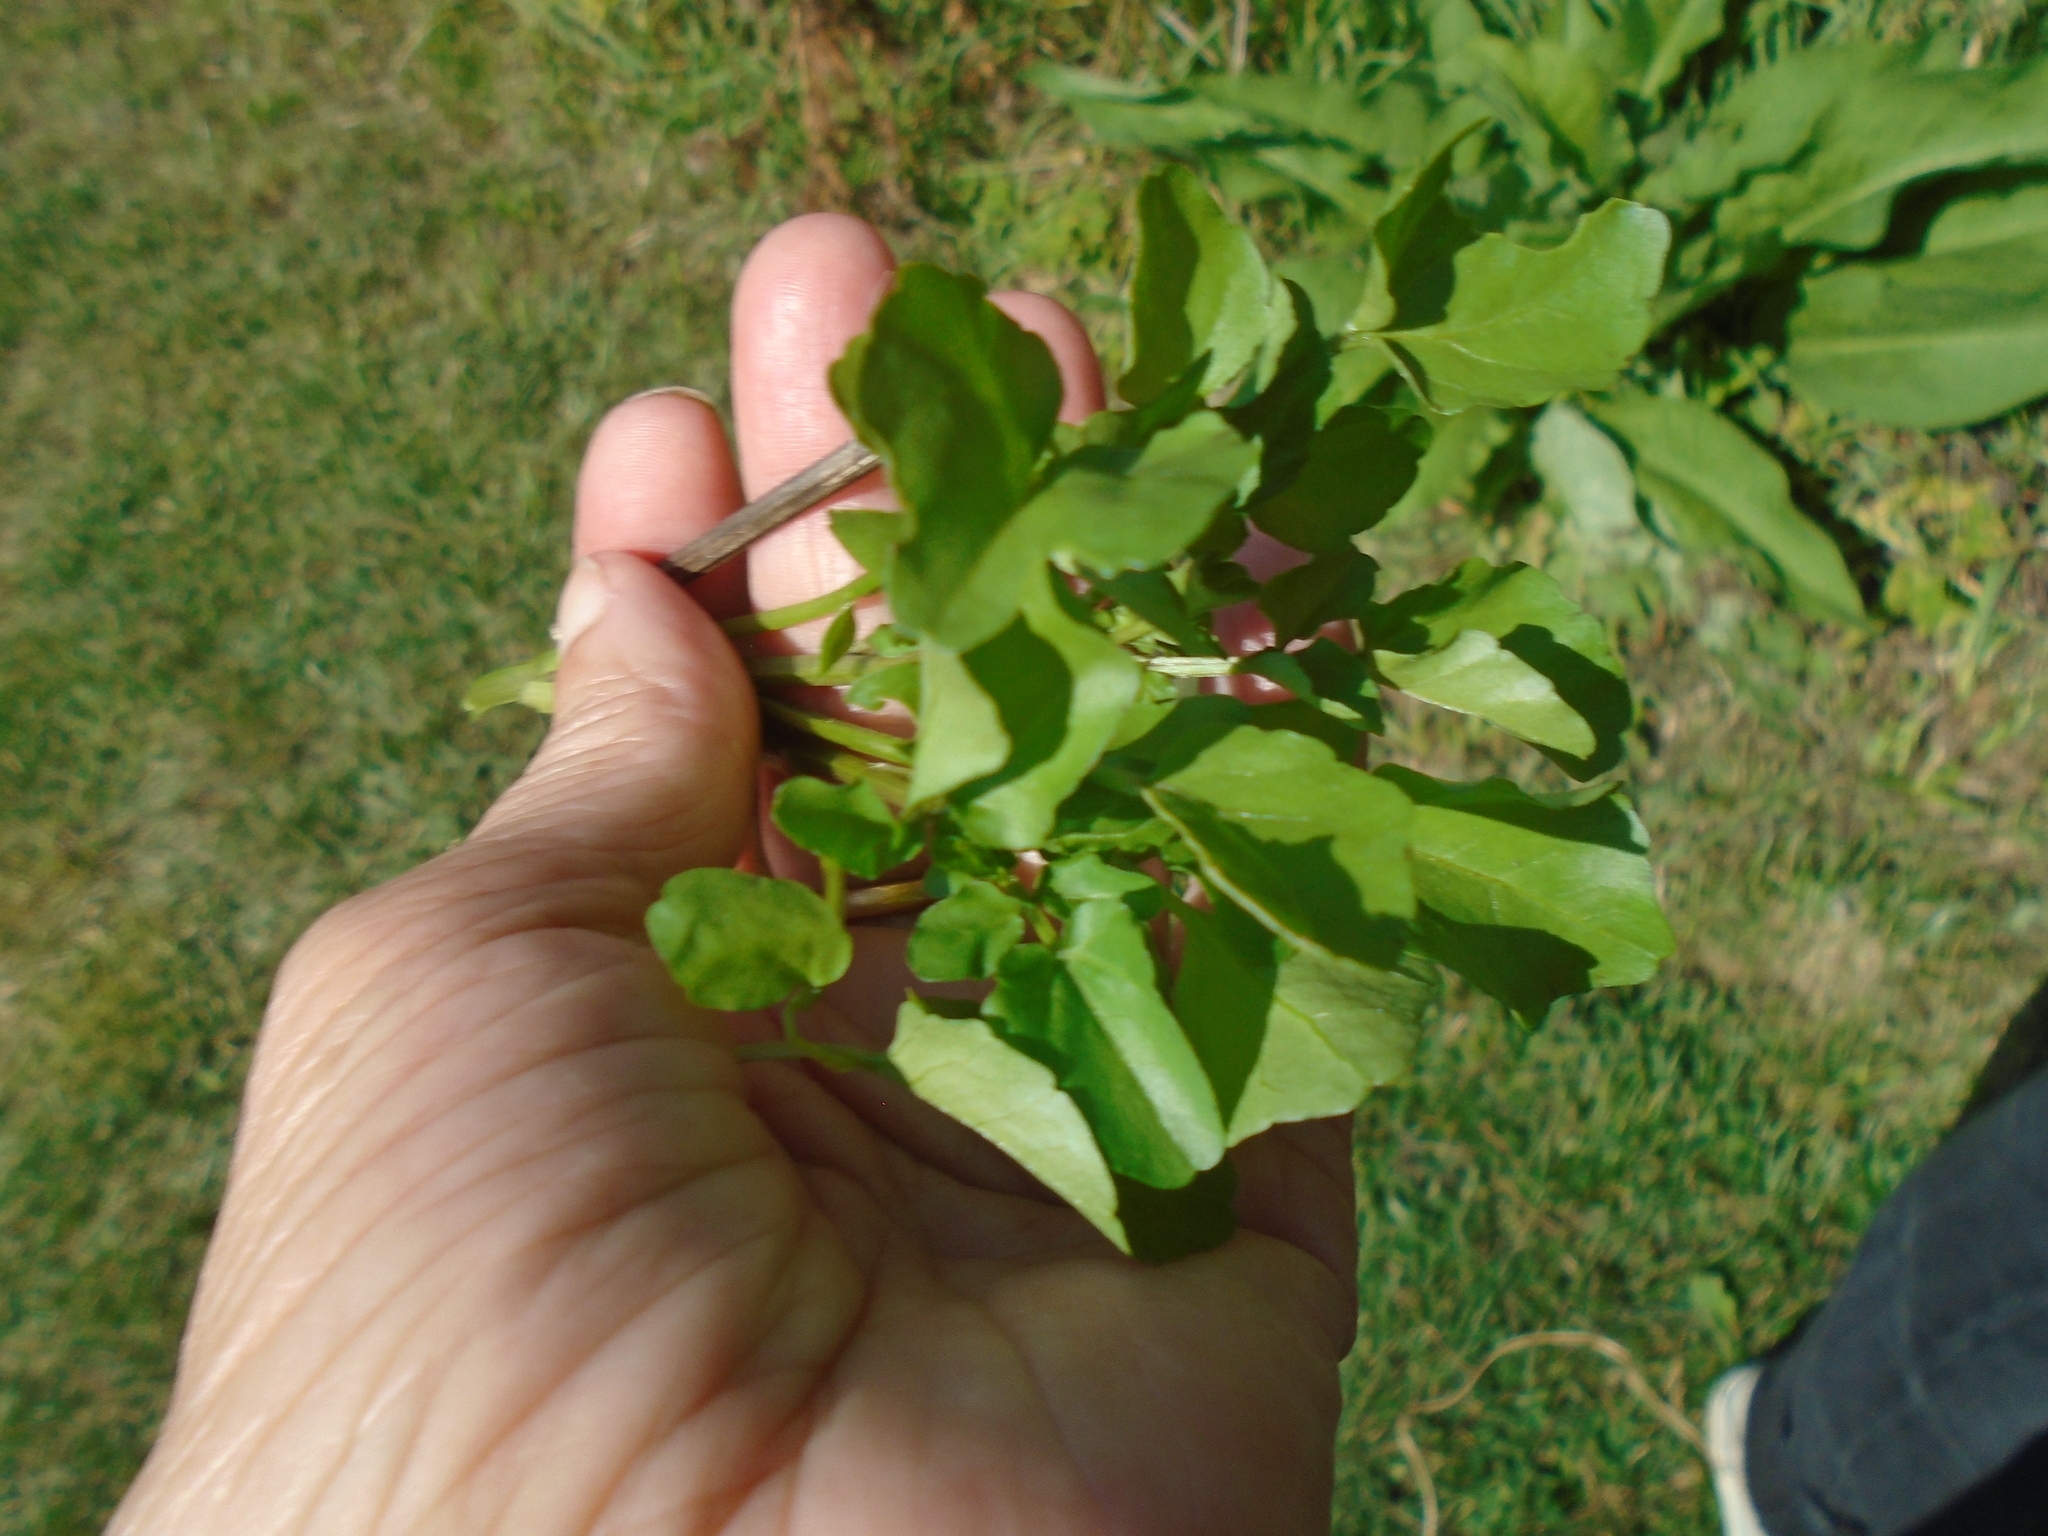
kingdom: Plantae
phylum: Tracheophyta
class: Magnoliopsida
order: Brassicales
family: Brassicaceae
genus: Nasturtium
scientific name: Nasturtium officinale
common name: Watercress
